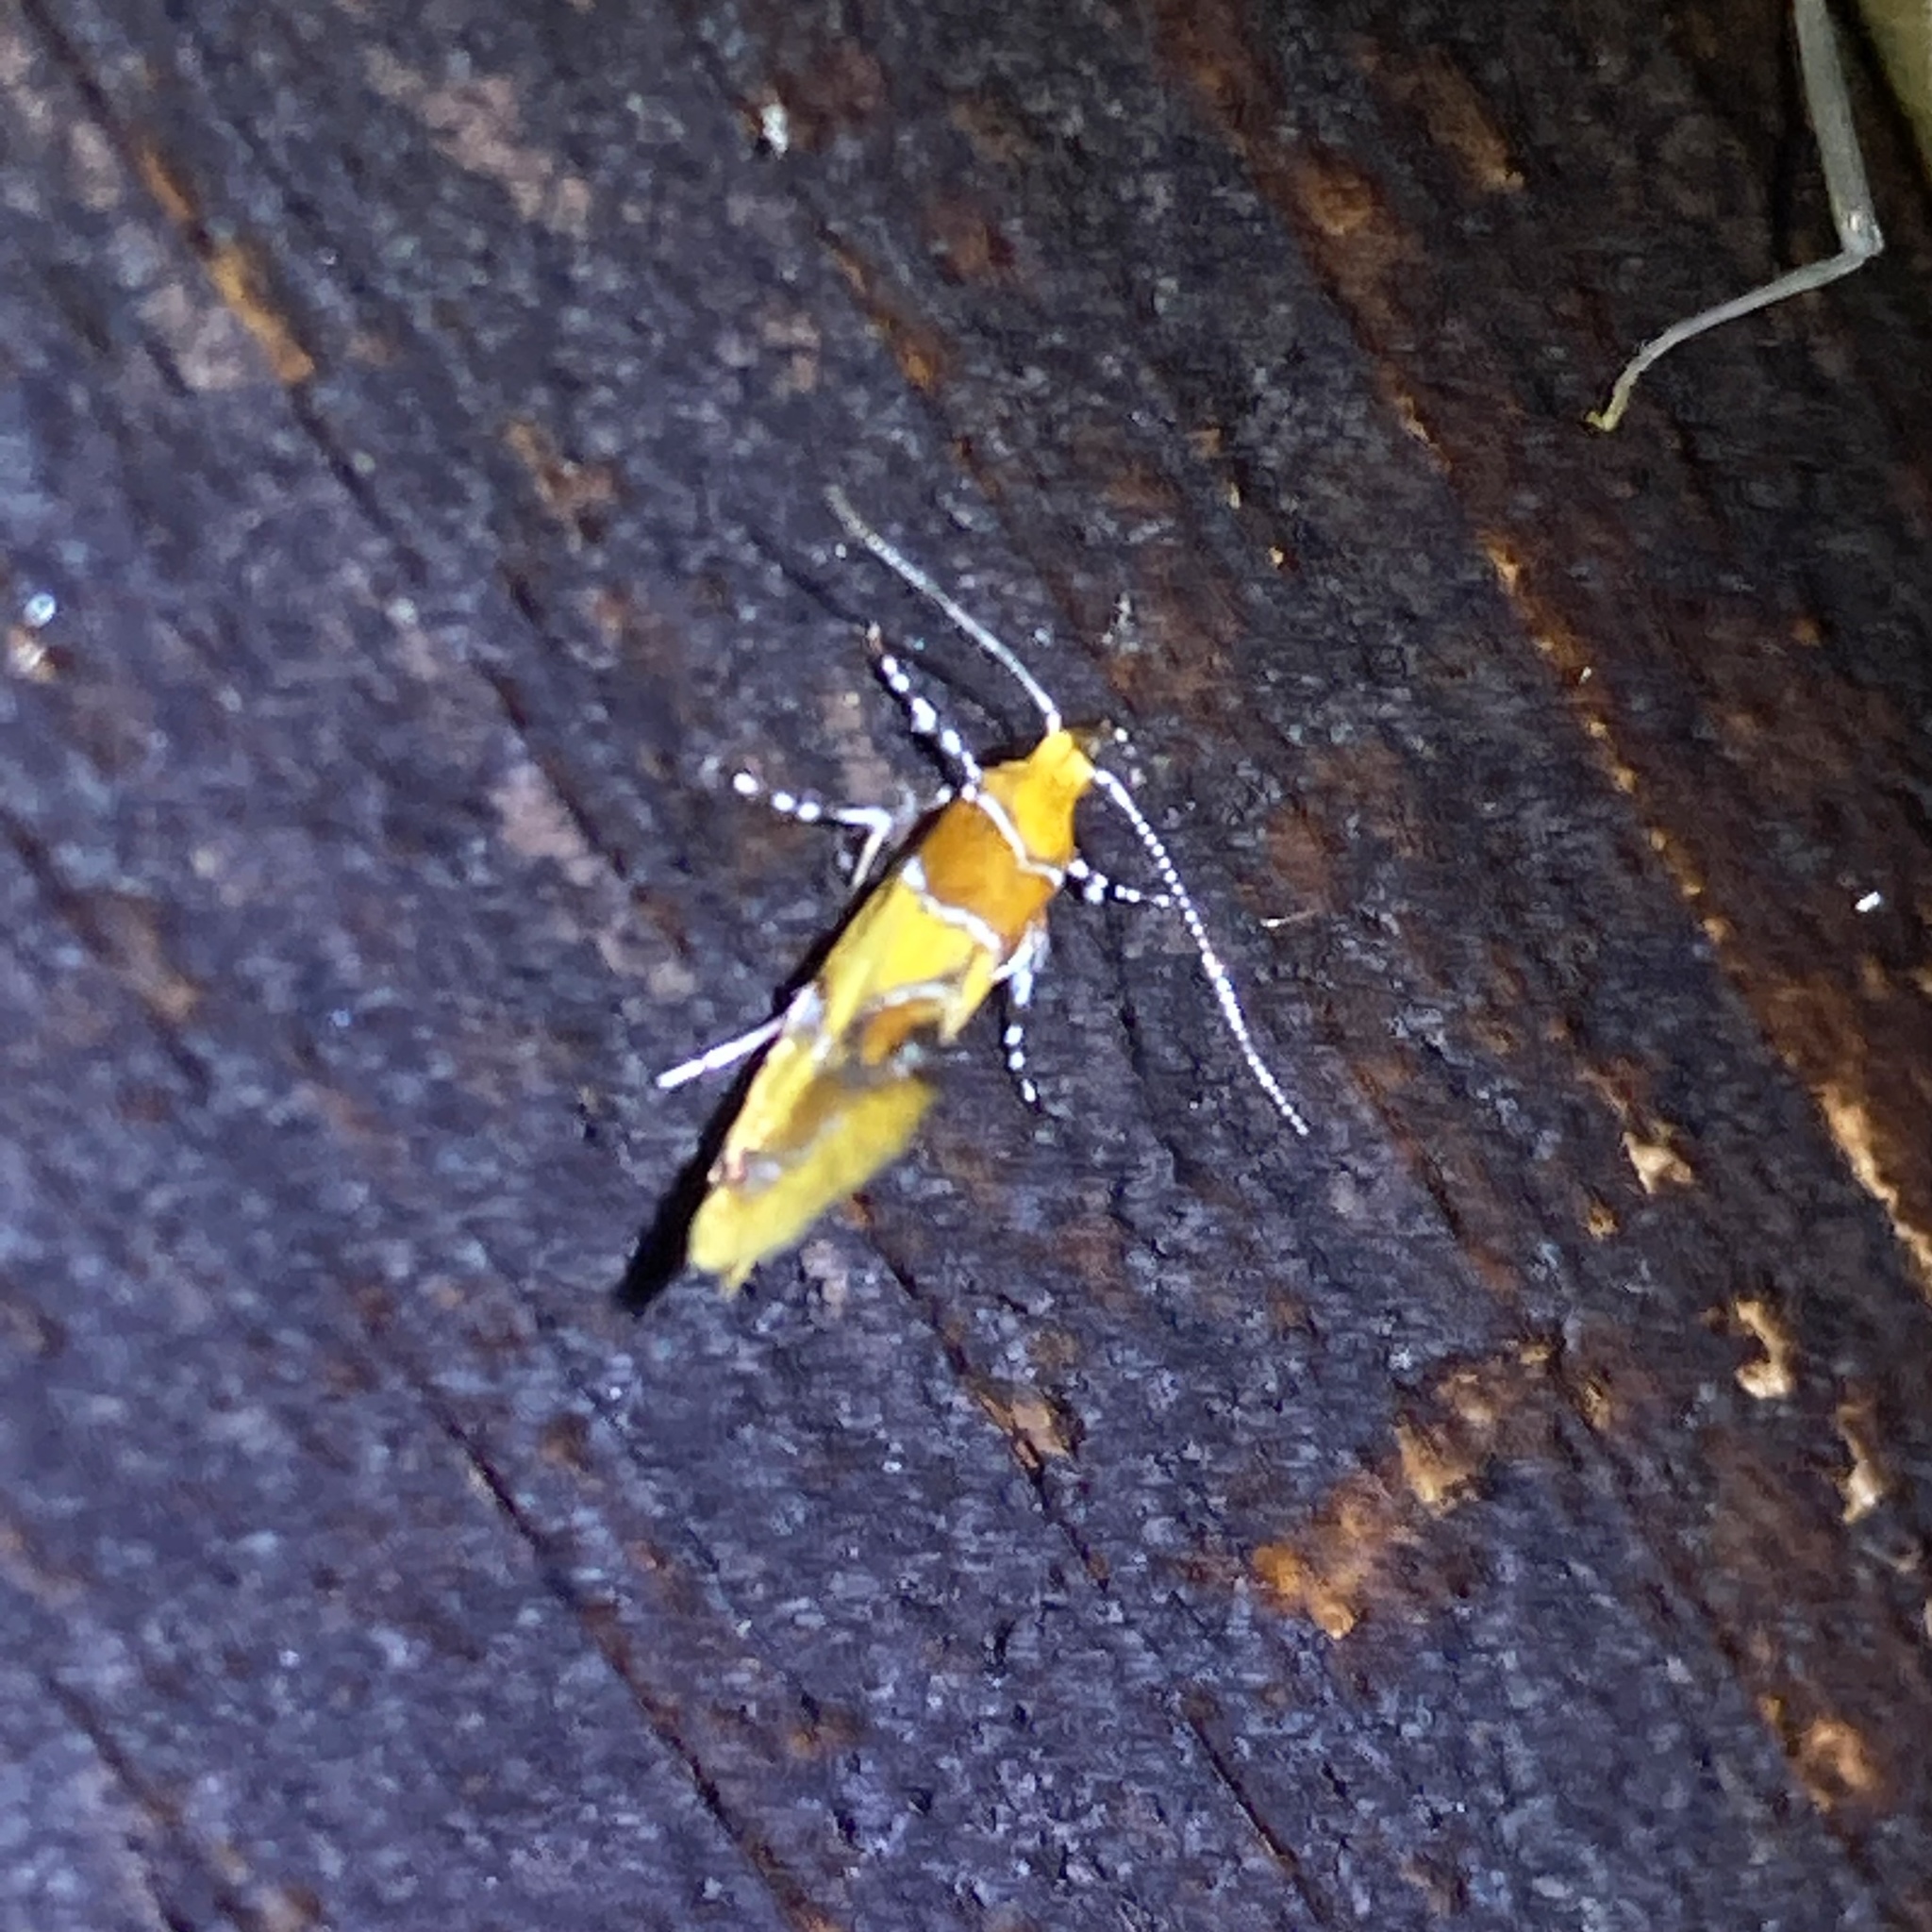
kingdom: Animalia
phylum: Arthropoda
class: Insecta
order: Lepidoptera
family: Oecophoridae
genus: Callima
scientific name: Callima argenticinctella
